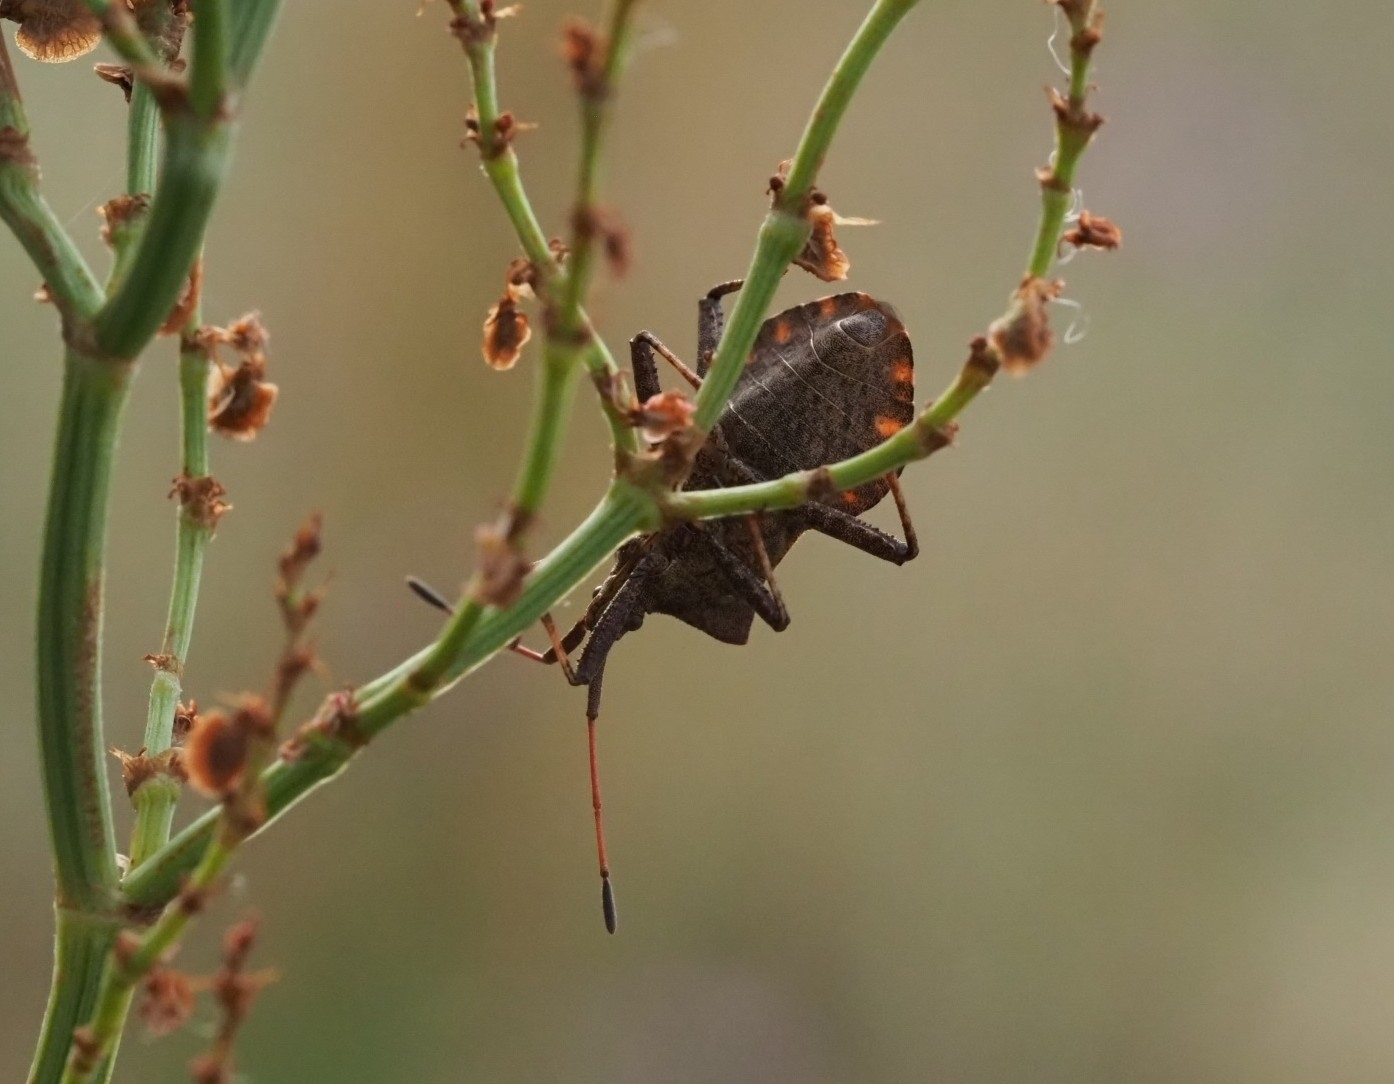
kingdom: Animalia
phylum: Arthropoda
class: Insecta
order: Hemiptera
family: Coreidae
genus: Coreus
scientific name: Coreus marginatus
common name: Dock bug
